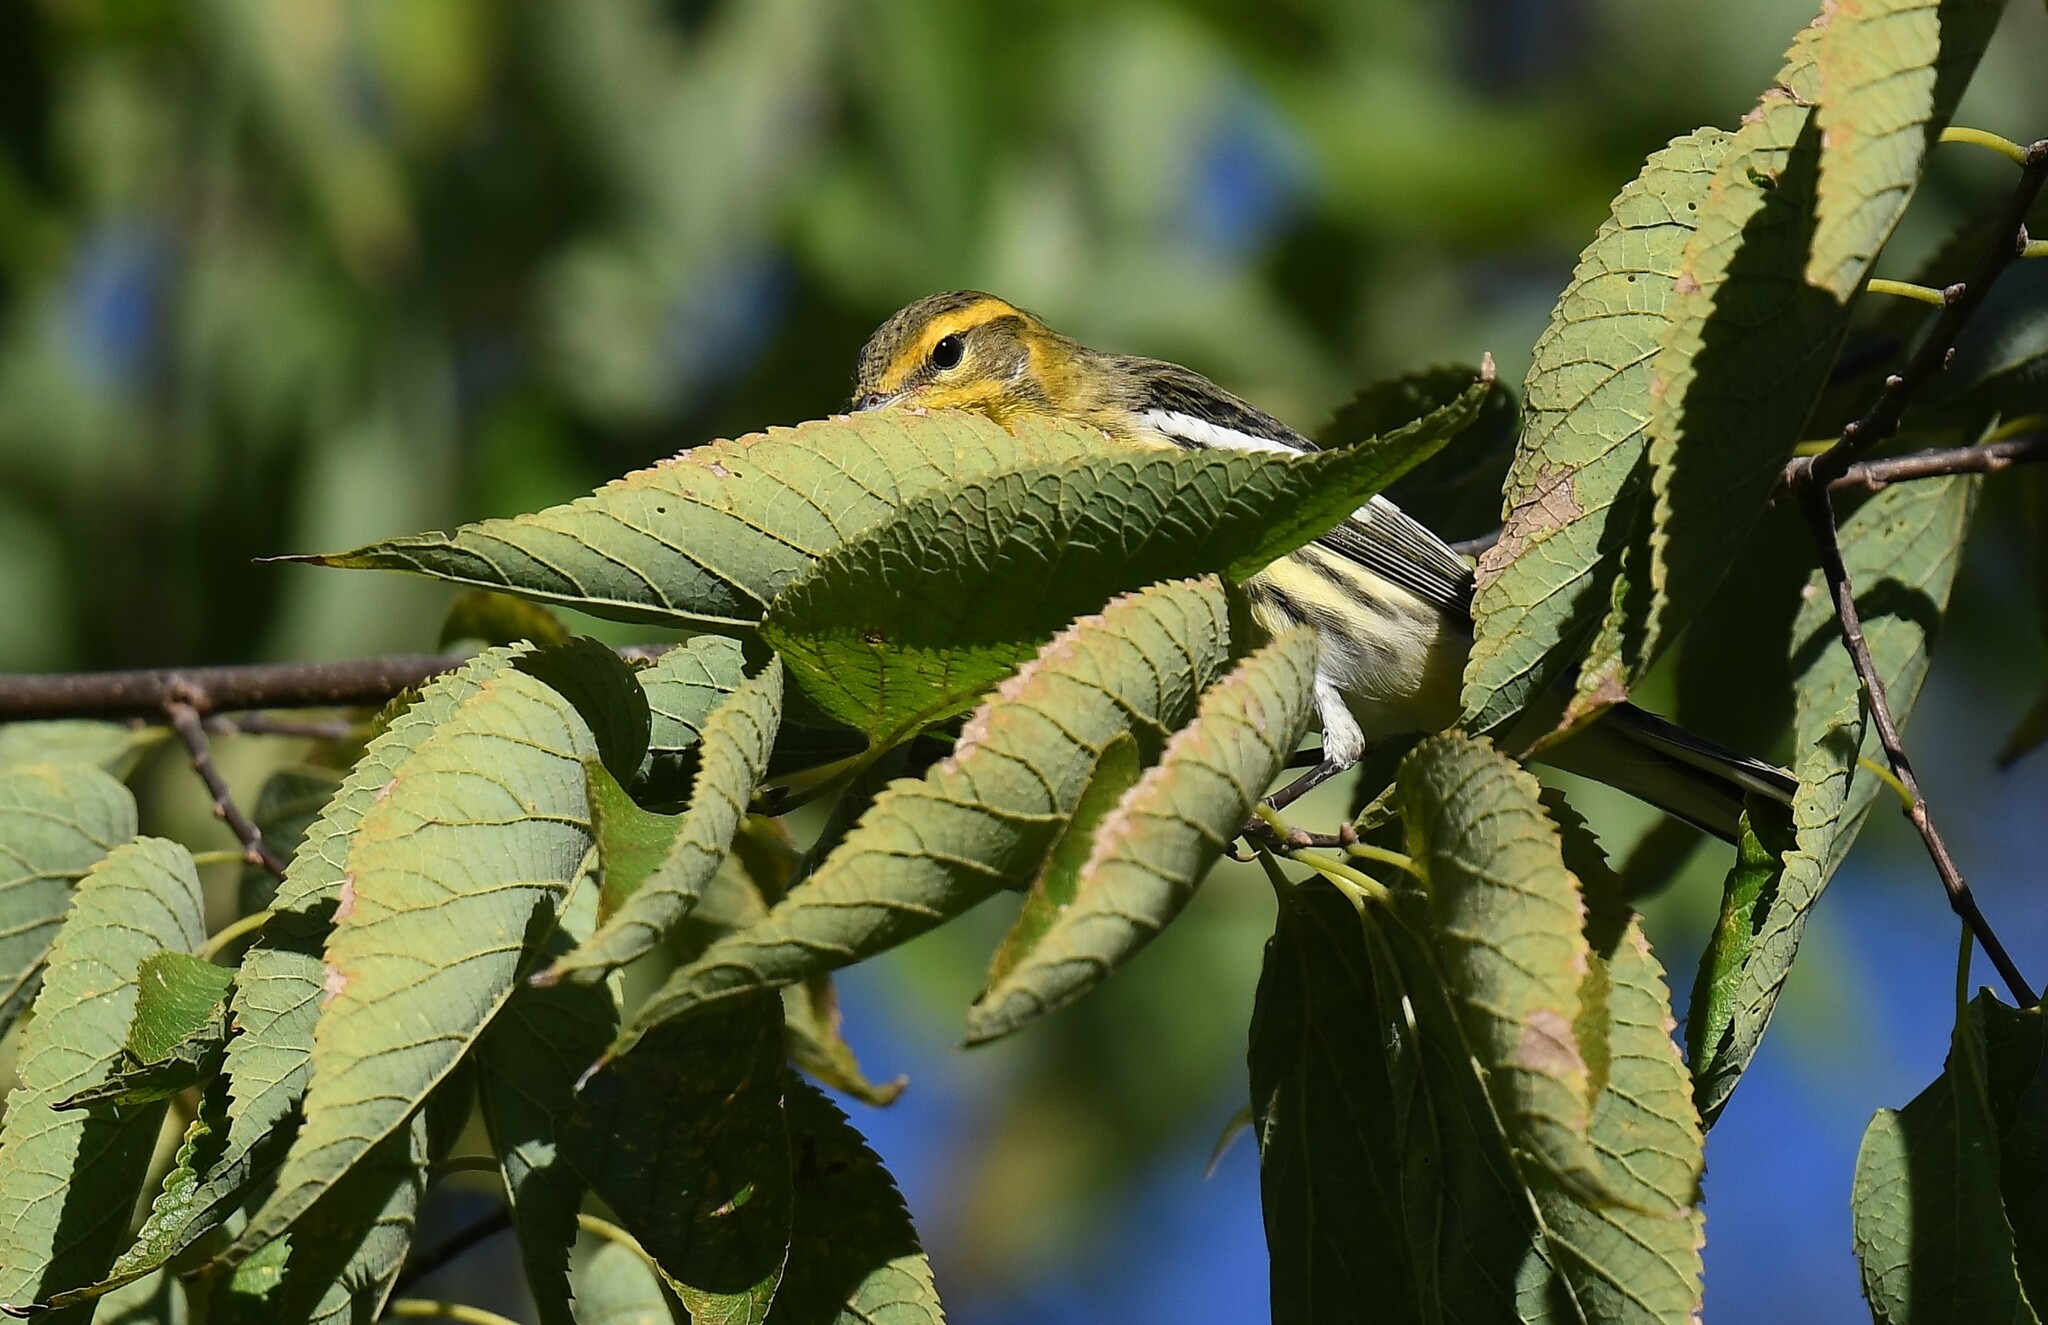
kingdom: Animalia
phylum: Chordata
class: Aves
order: Passeriformes
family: Parulidae
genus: Setophaga
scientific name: Setophaga fusca
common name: Blackburnian warbler
